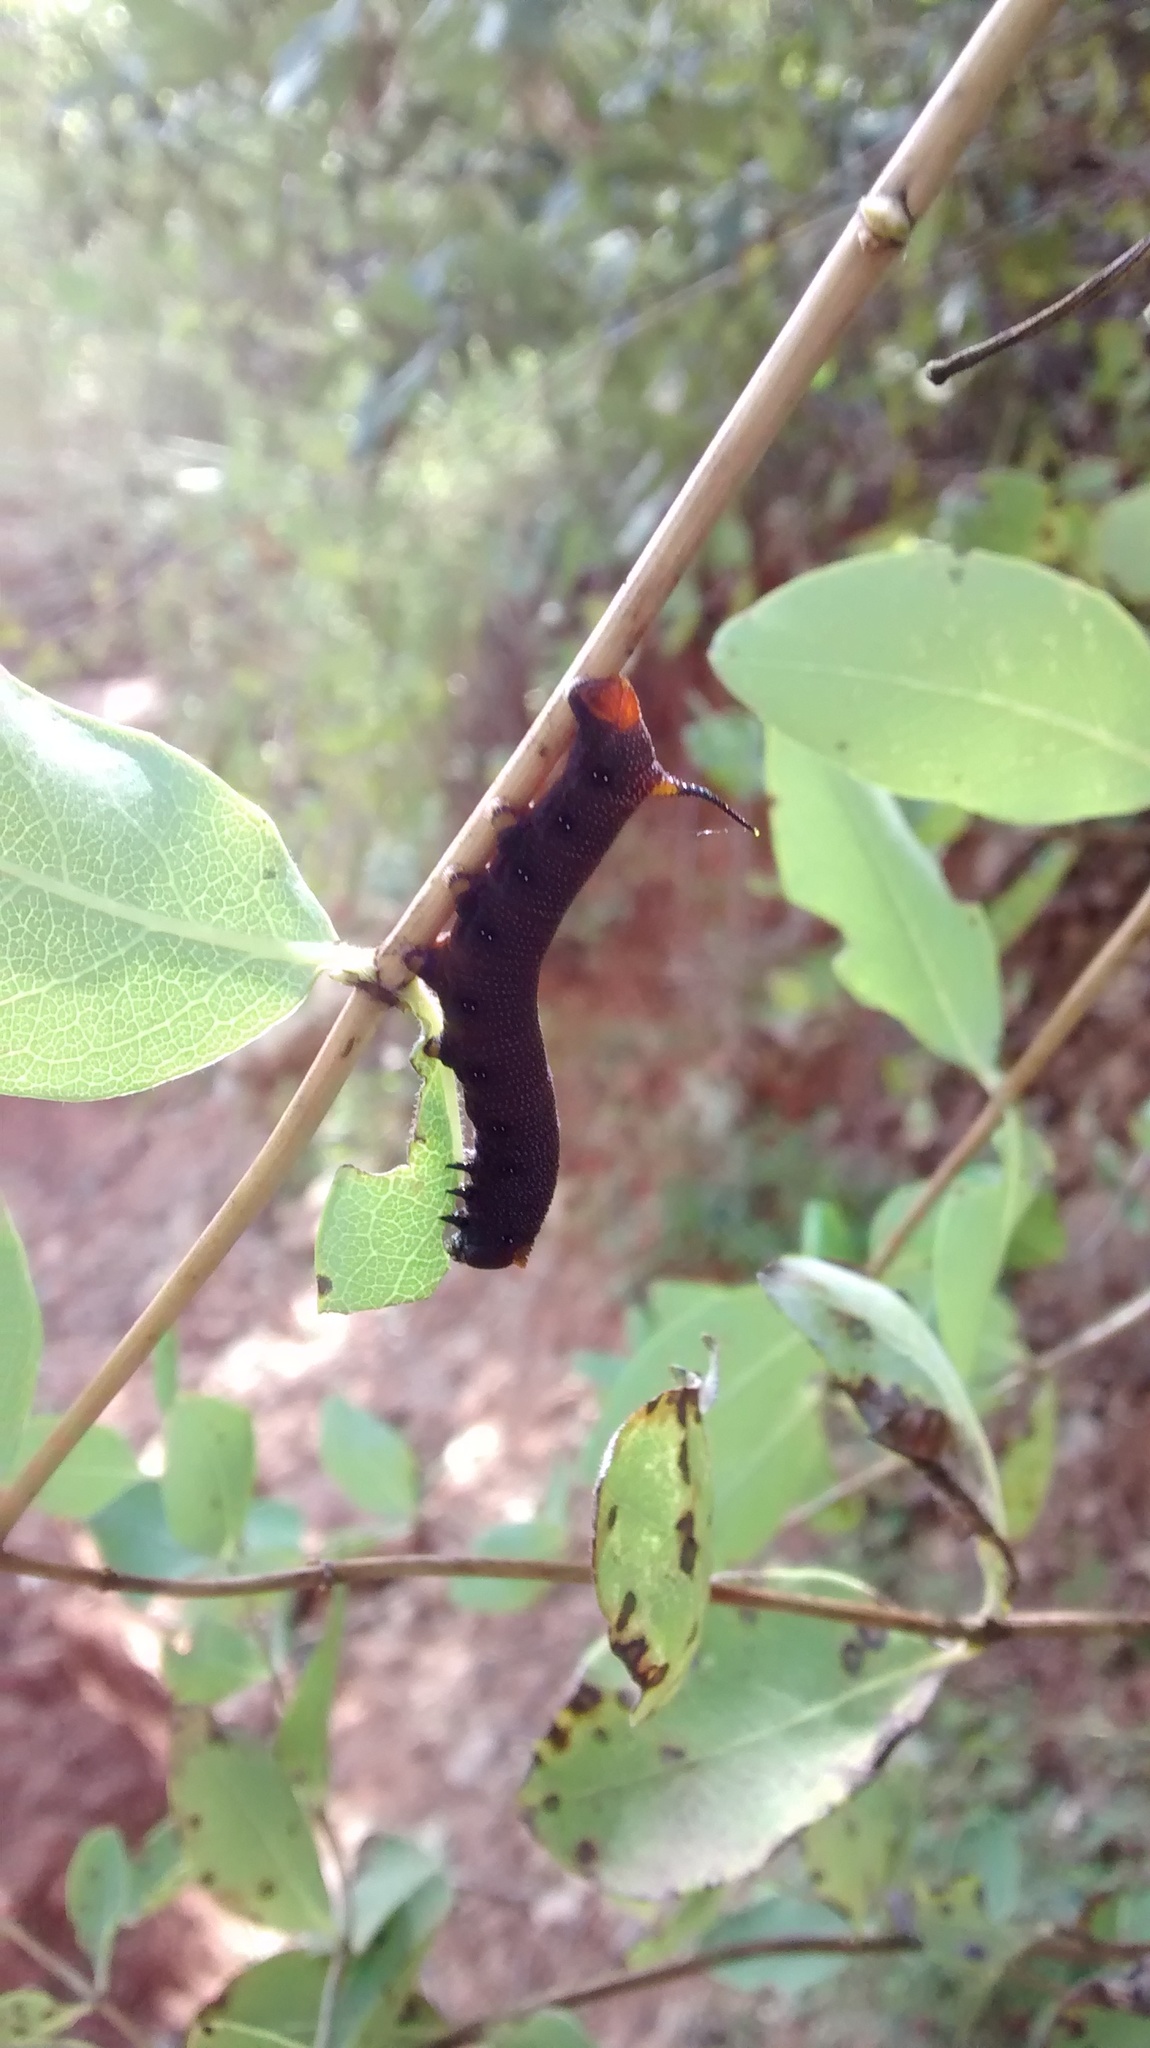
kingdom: Animalia
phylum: Arthropoda
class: Insecta
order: Lepidoptera
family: Sphingidae
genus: Hemaris
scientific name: Hemaris diffinis
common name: Bumblebee moth
